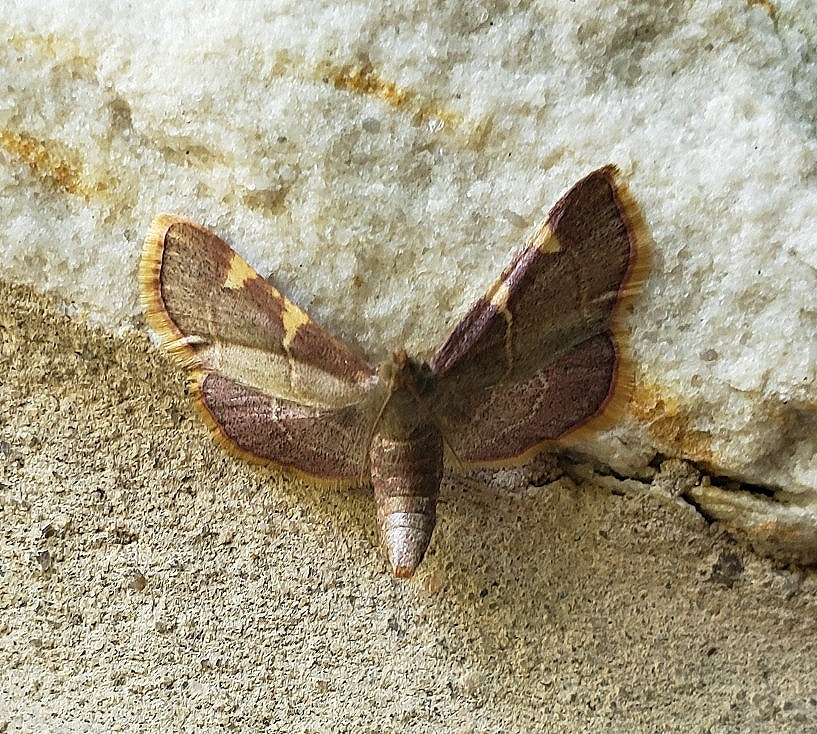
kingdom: Animalia
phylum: Arthropoda
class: Insecta
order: Lepidoptera
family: Pyralidae
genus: Hypsopygia
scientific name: Hypsopygia olinalis
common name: Yellow-fringed dolichomia moth
